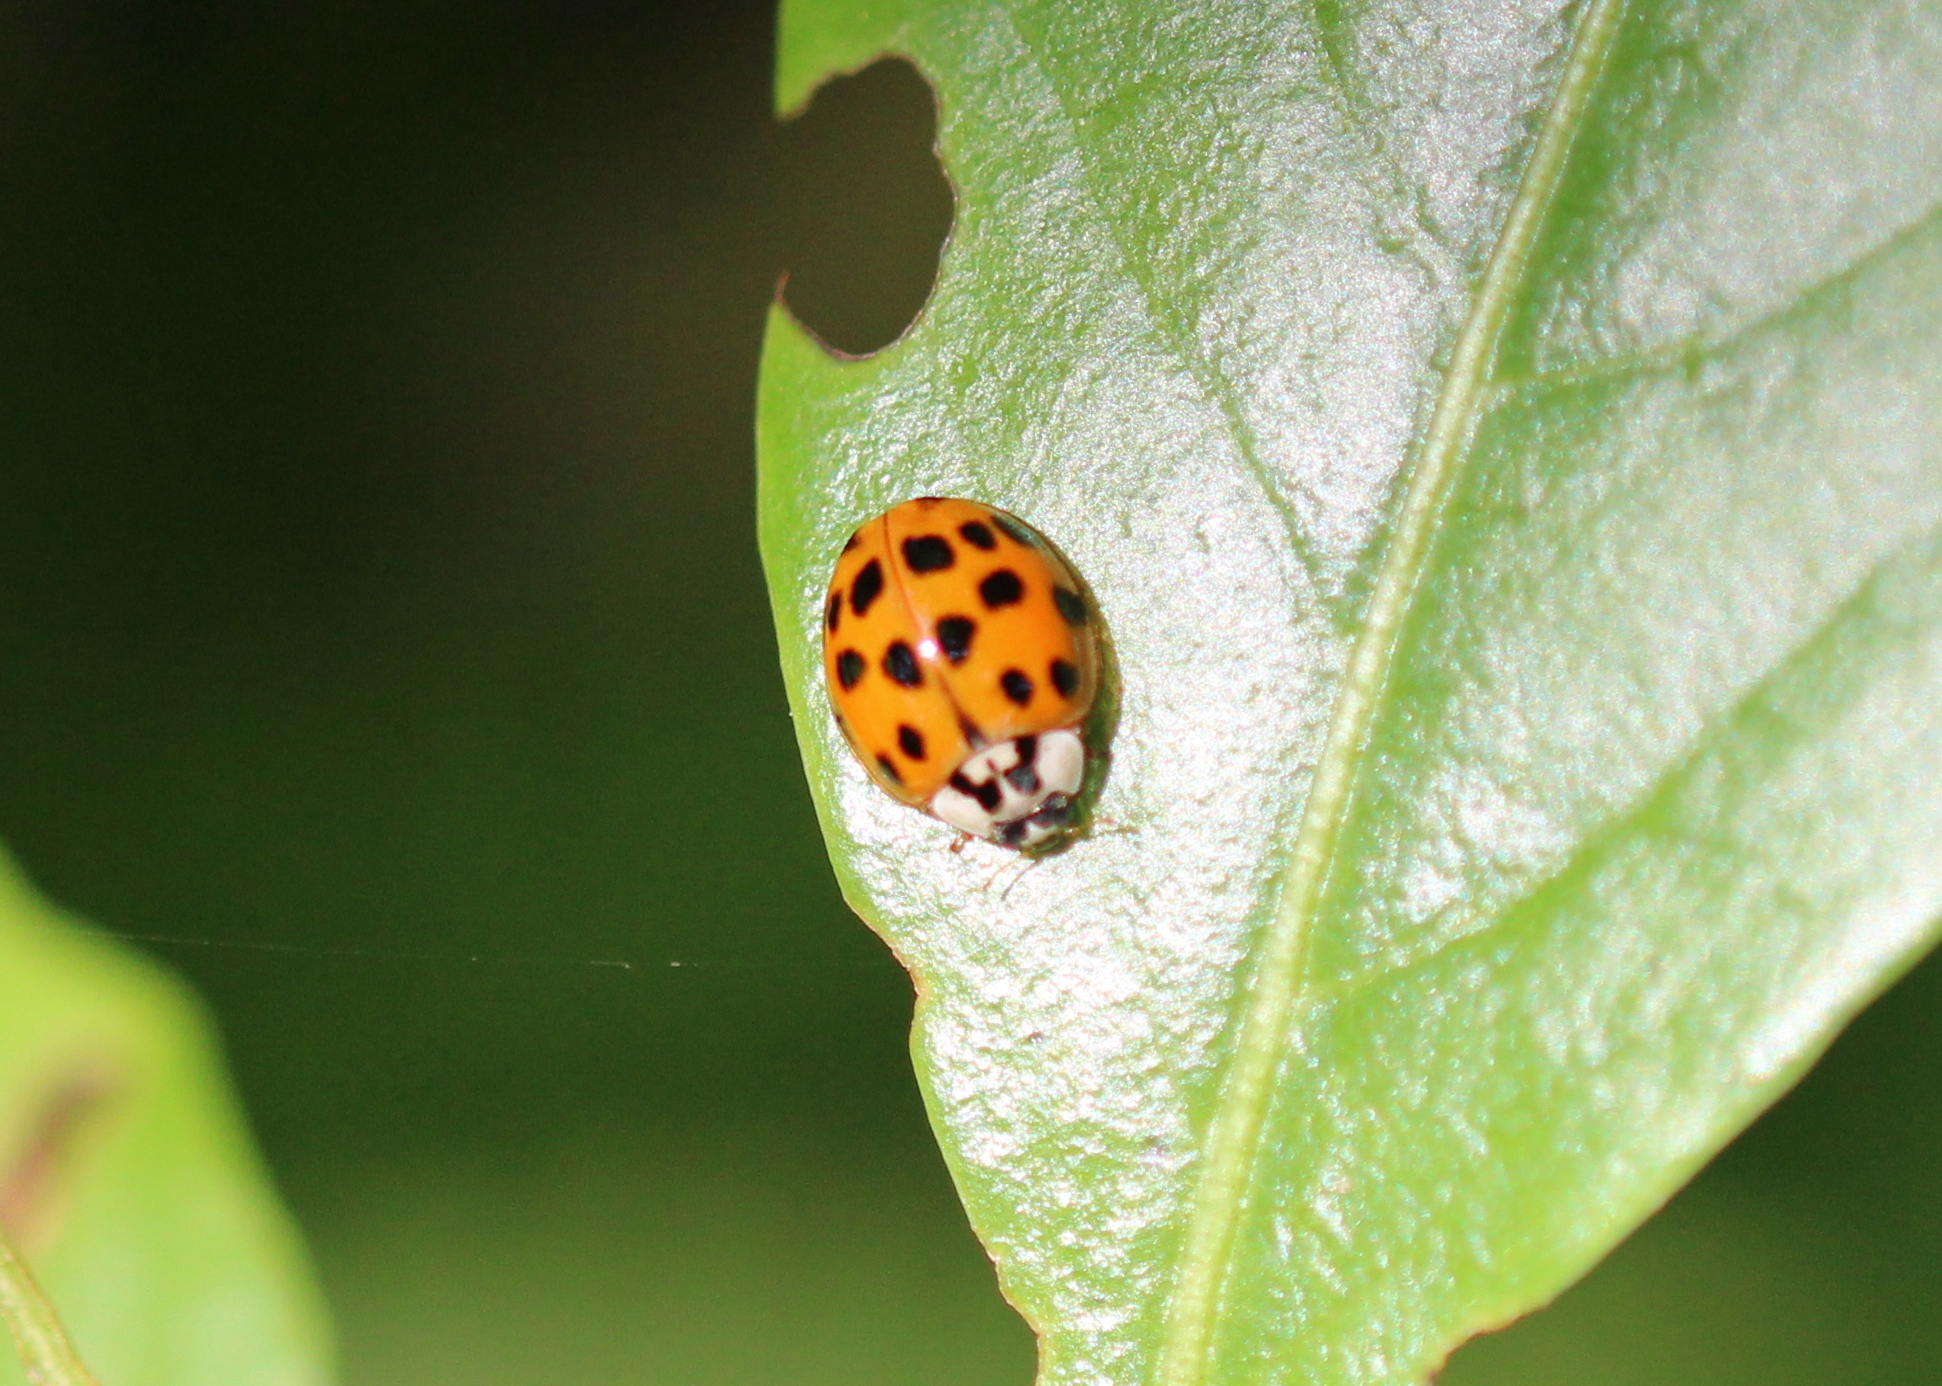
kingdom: Animalia
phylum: Arthropoda
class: Insecta
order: Coleoptera
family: Coccinellidae
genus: Harmonia
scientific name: Harmonia axyridis
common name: Harlequin ladybird
